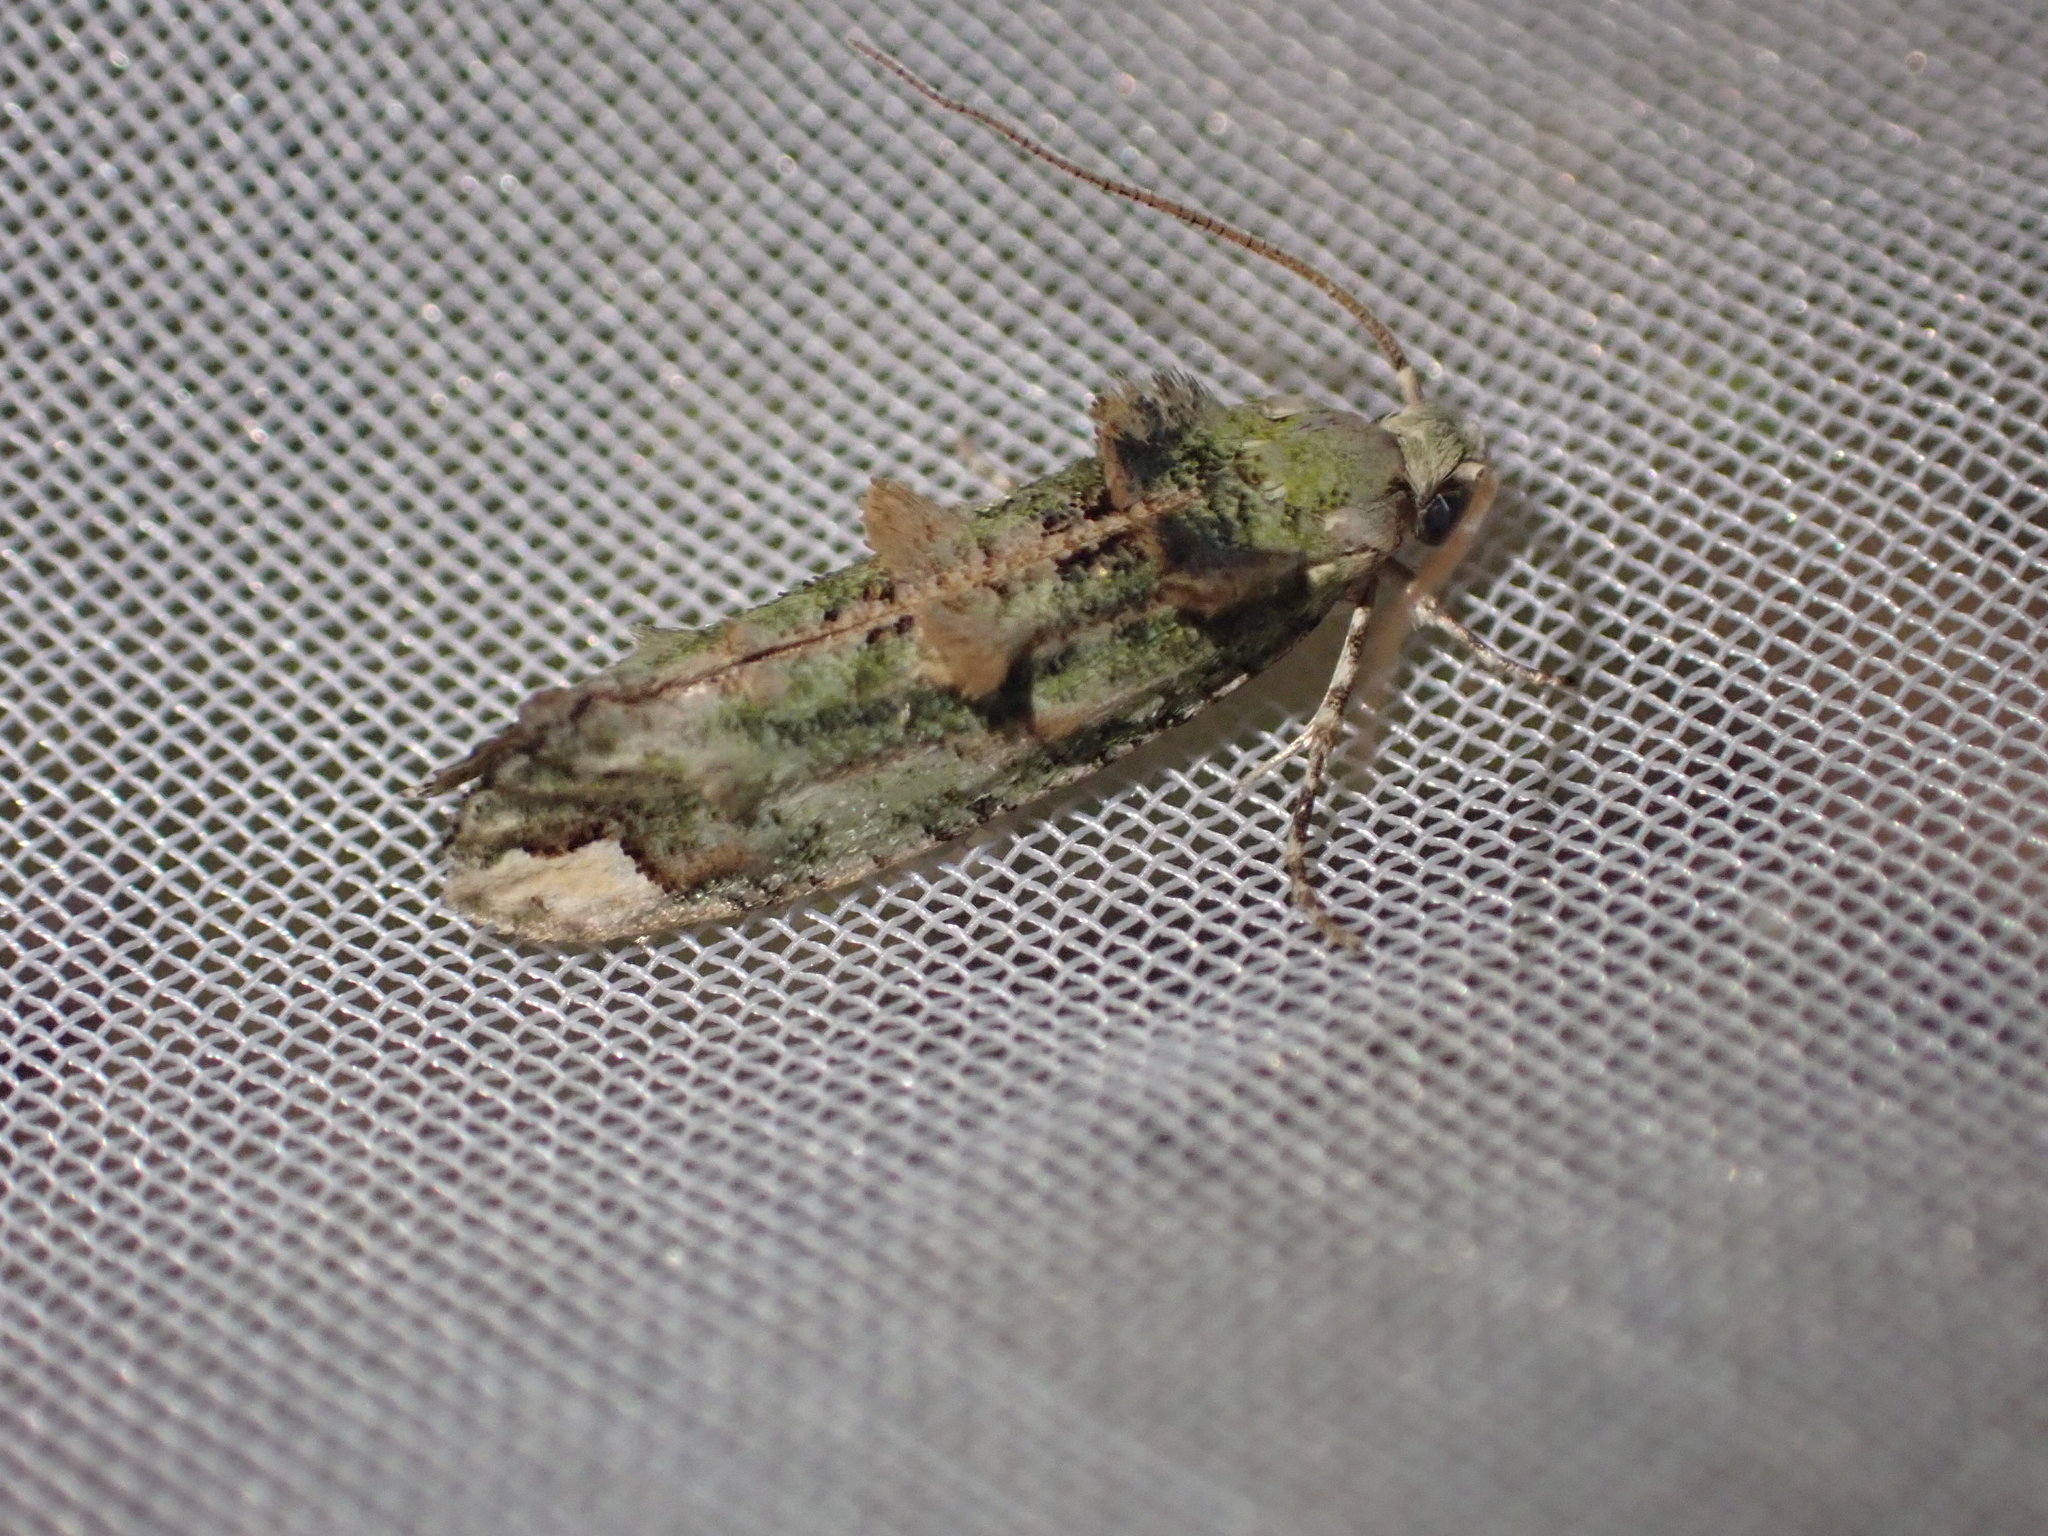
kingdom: Animalia
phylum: Arthropoda
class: Insecta
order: Lepidoptera
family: Tineidae
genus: Lysiphragma
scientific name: Lysiphragma mixochlora
